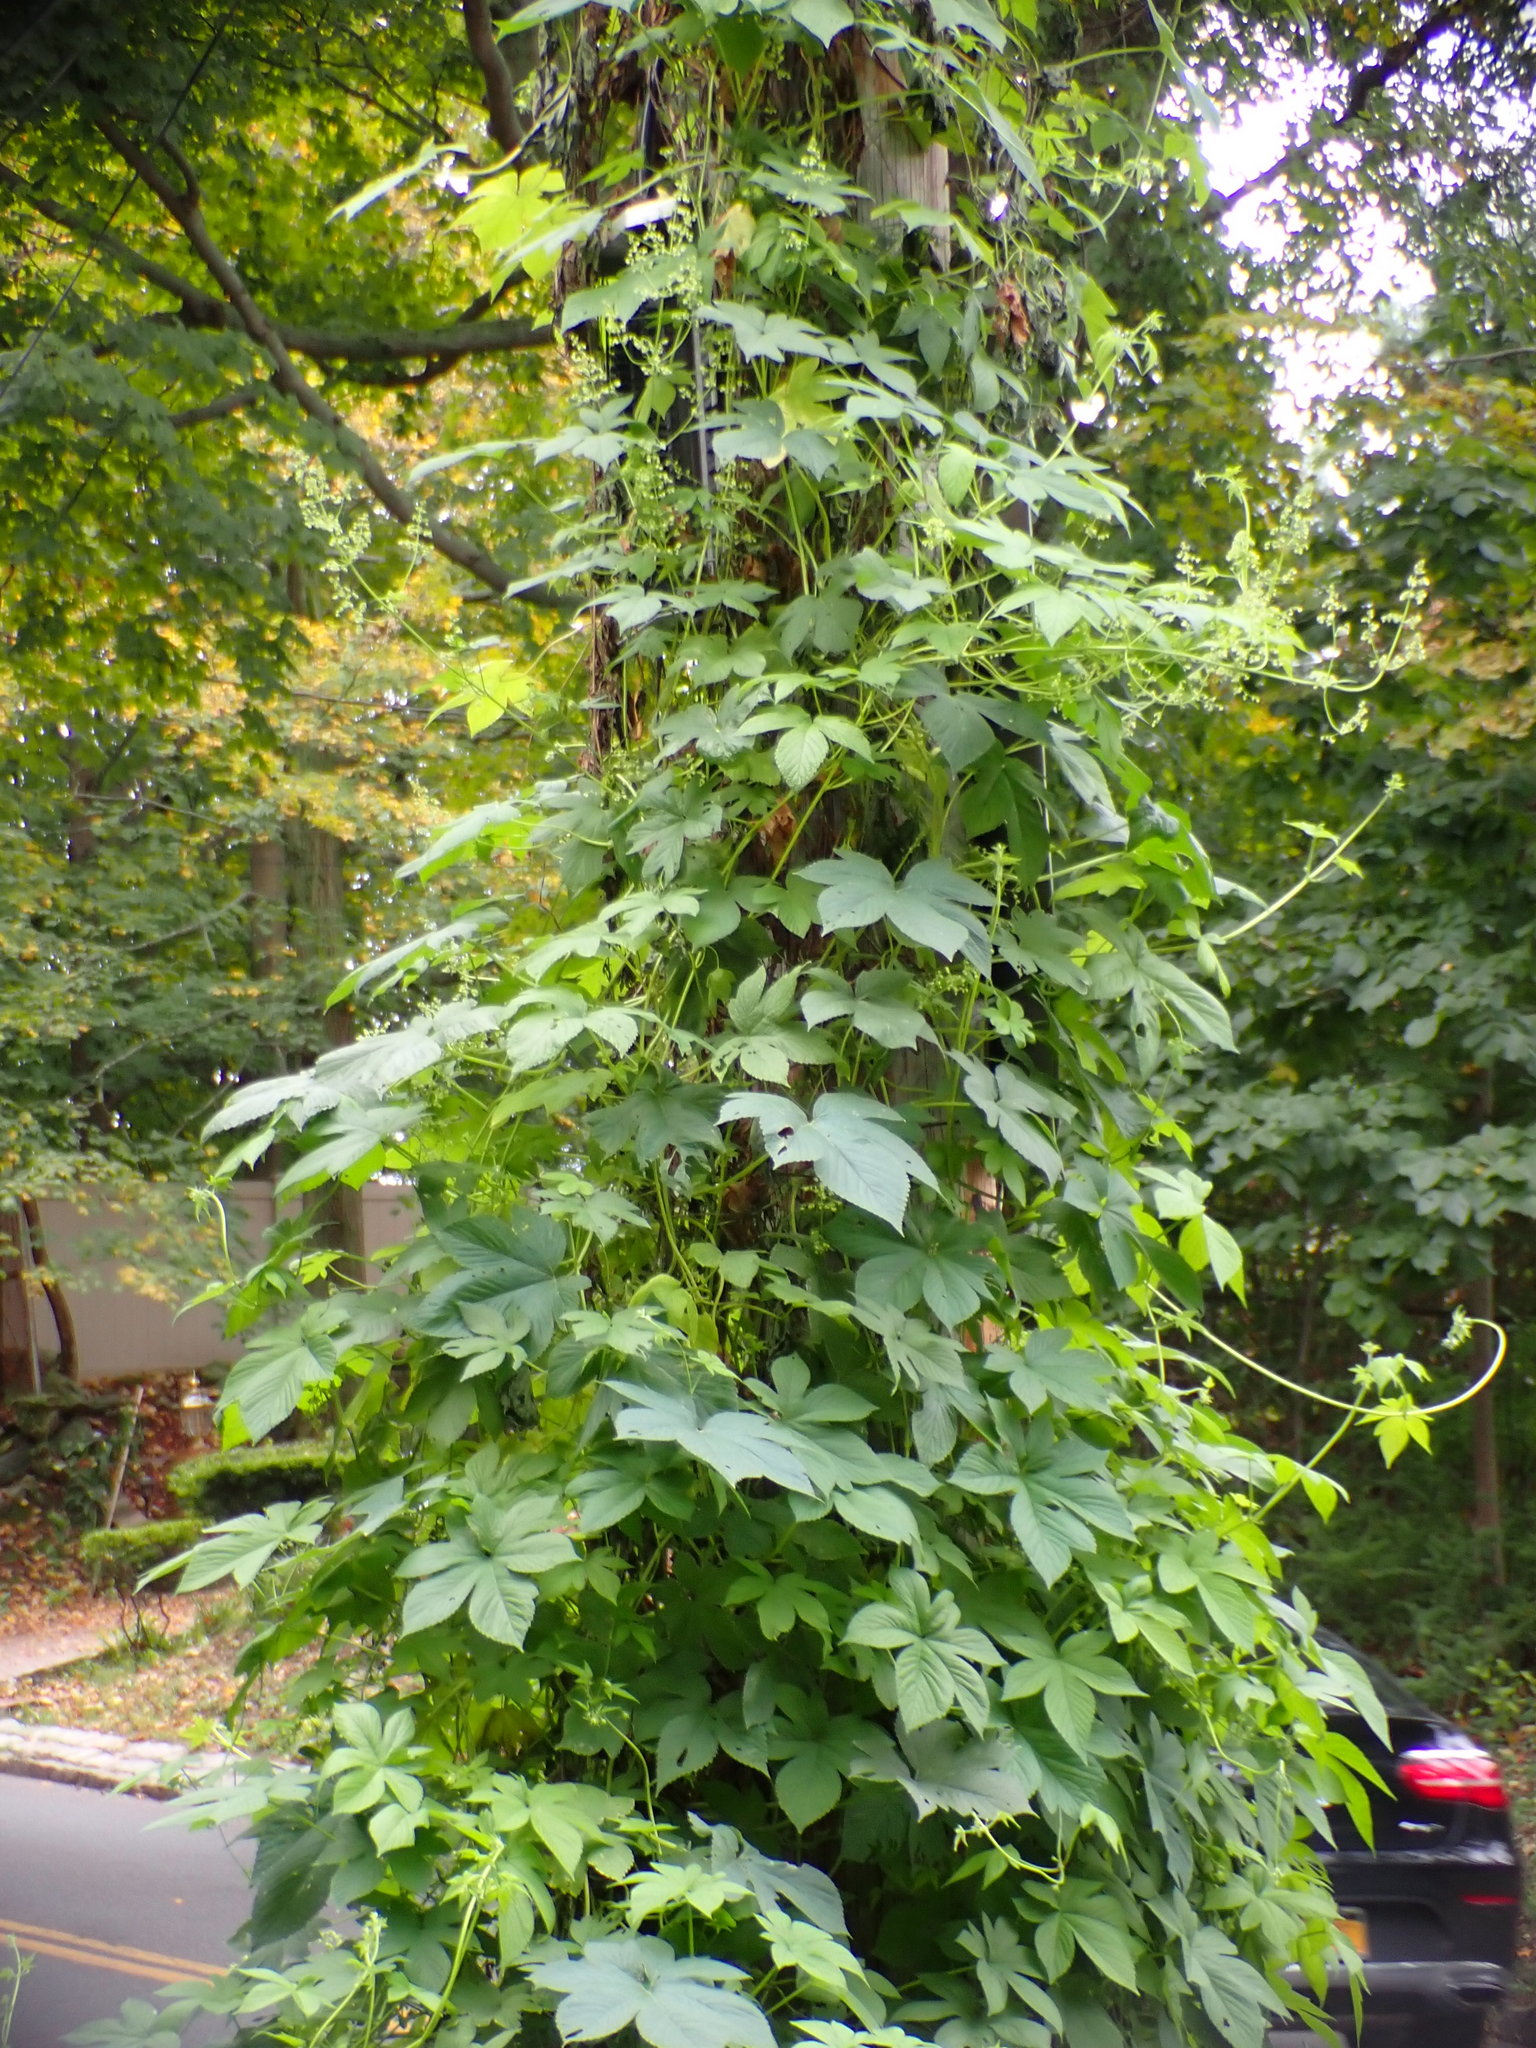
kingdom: Plantae
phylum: Tracheophyta
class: Magnoliopsida
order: Rosales
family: Cannabaceae
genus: Humulus
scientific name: Humulus scandens
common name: Japanese hop
